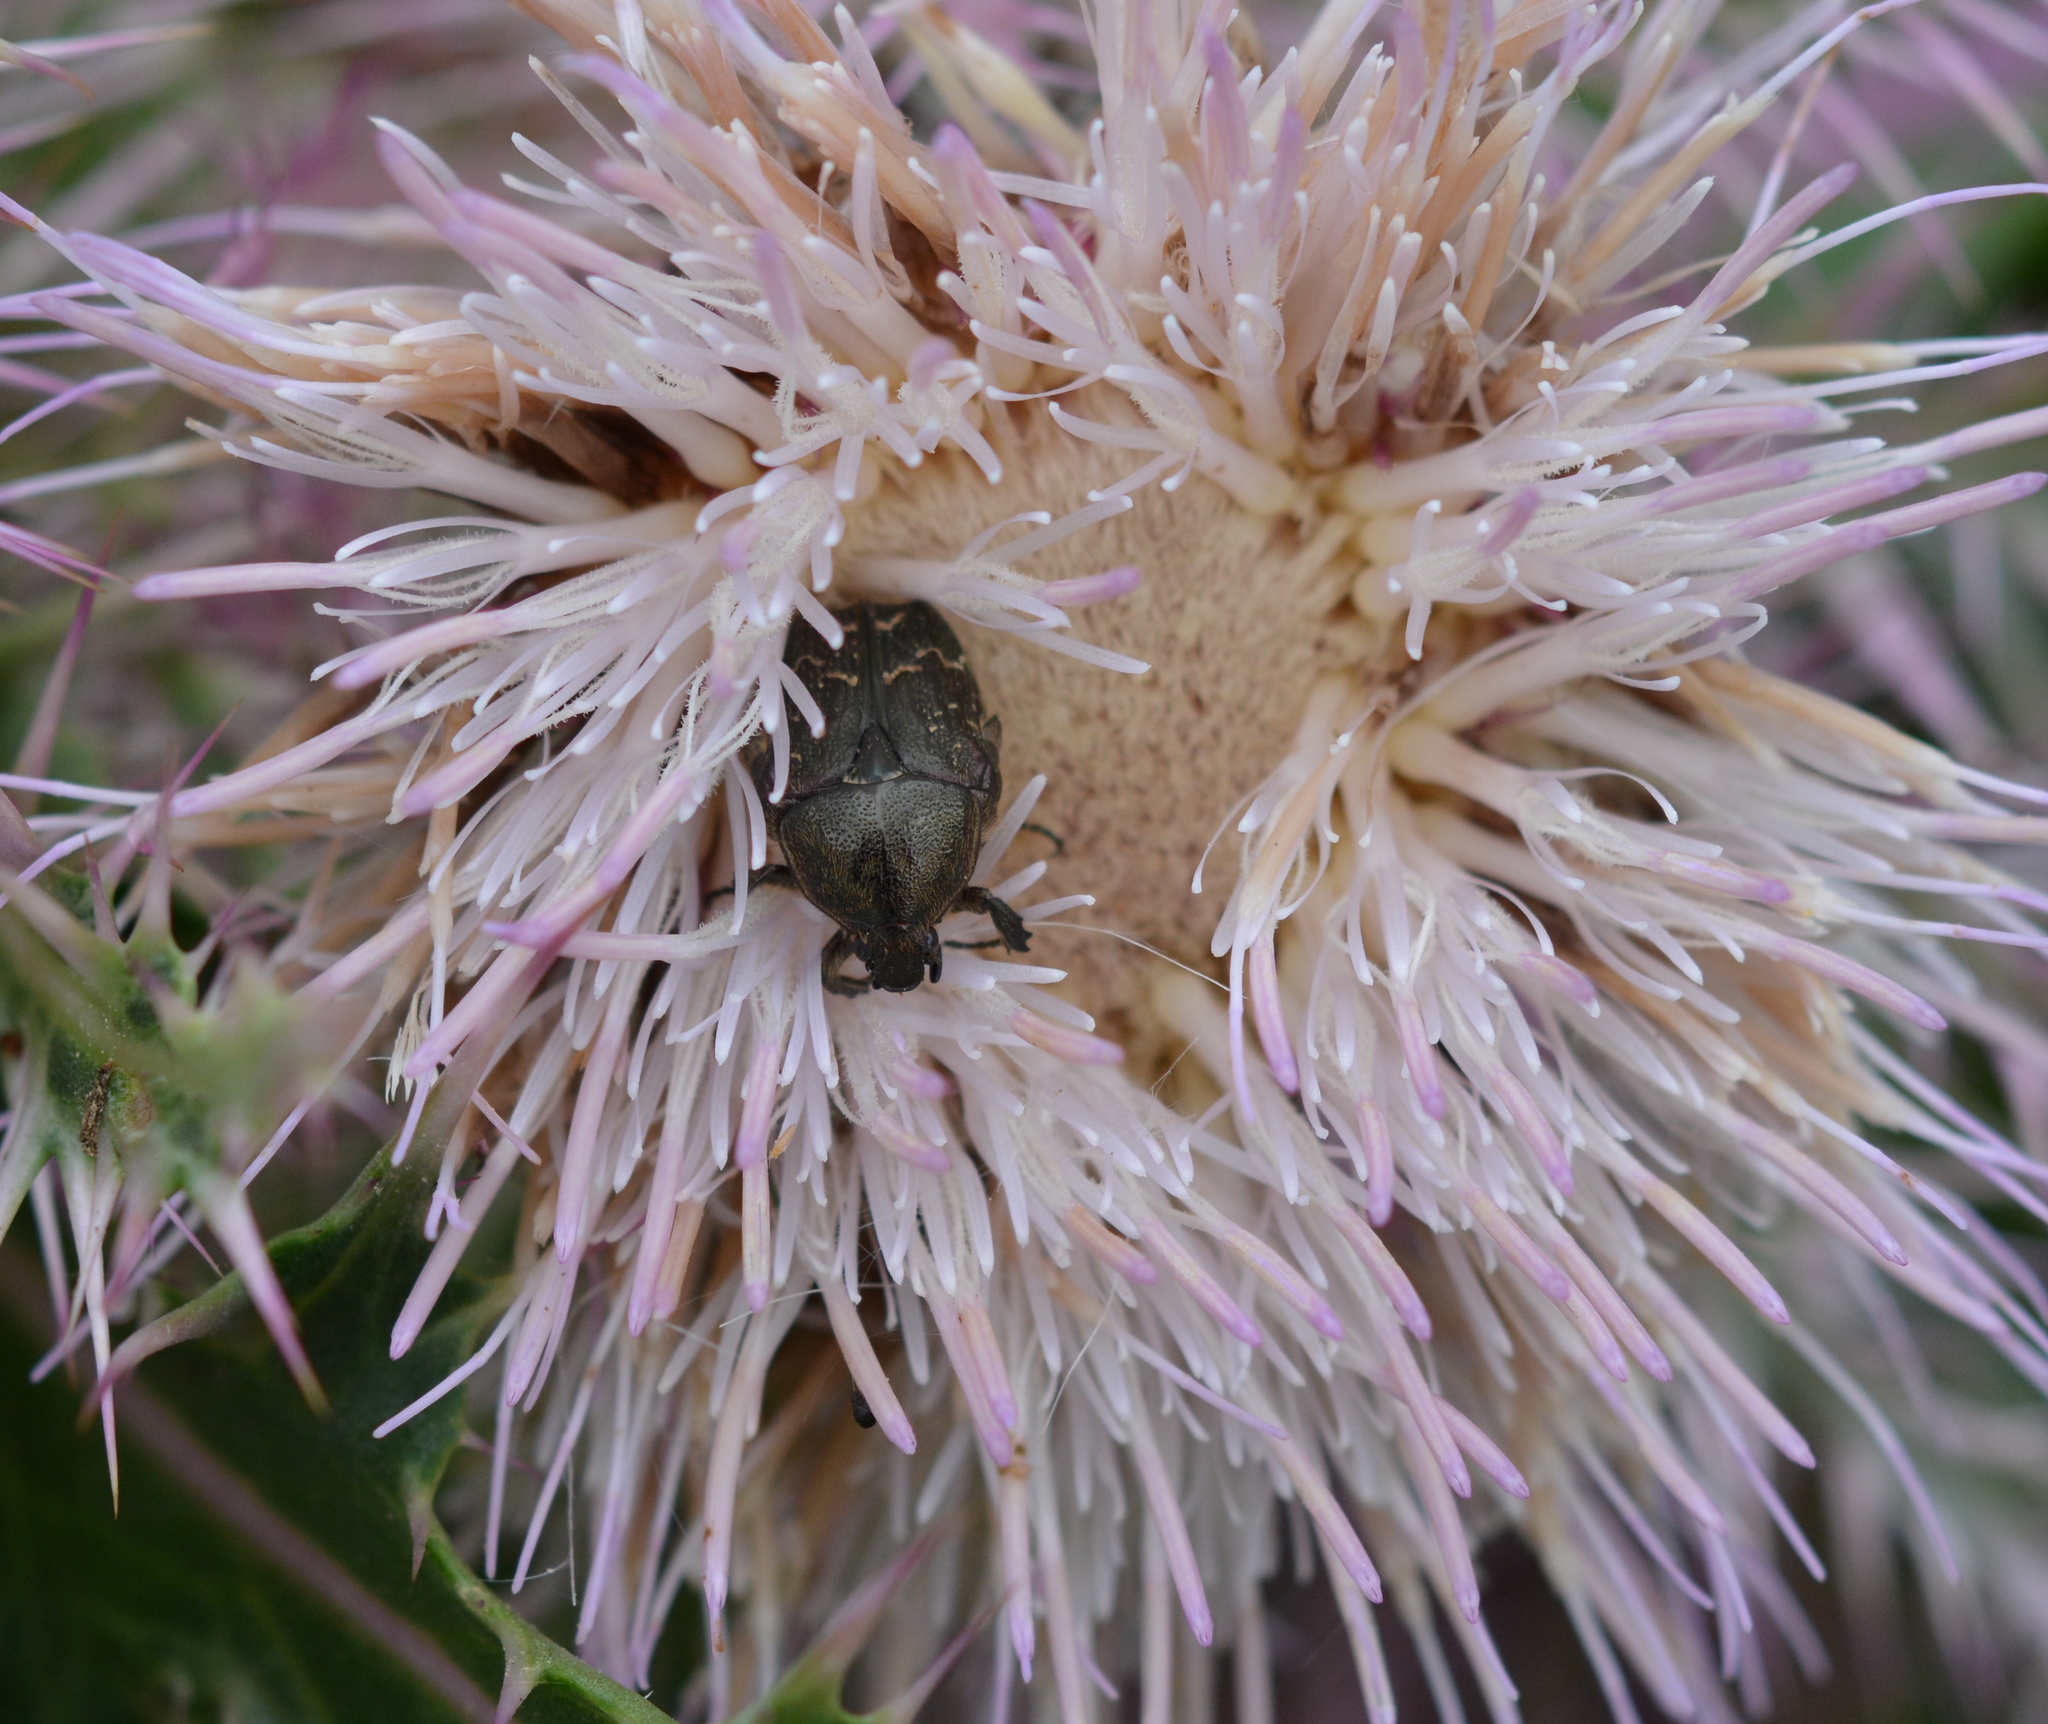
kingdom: Animalia
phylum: Arthropoda
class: Insecta
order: Coleoptera
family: Scarabaeidae
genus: Euphoria
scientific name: Euphoria sepulcralis
